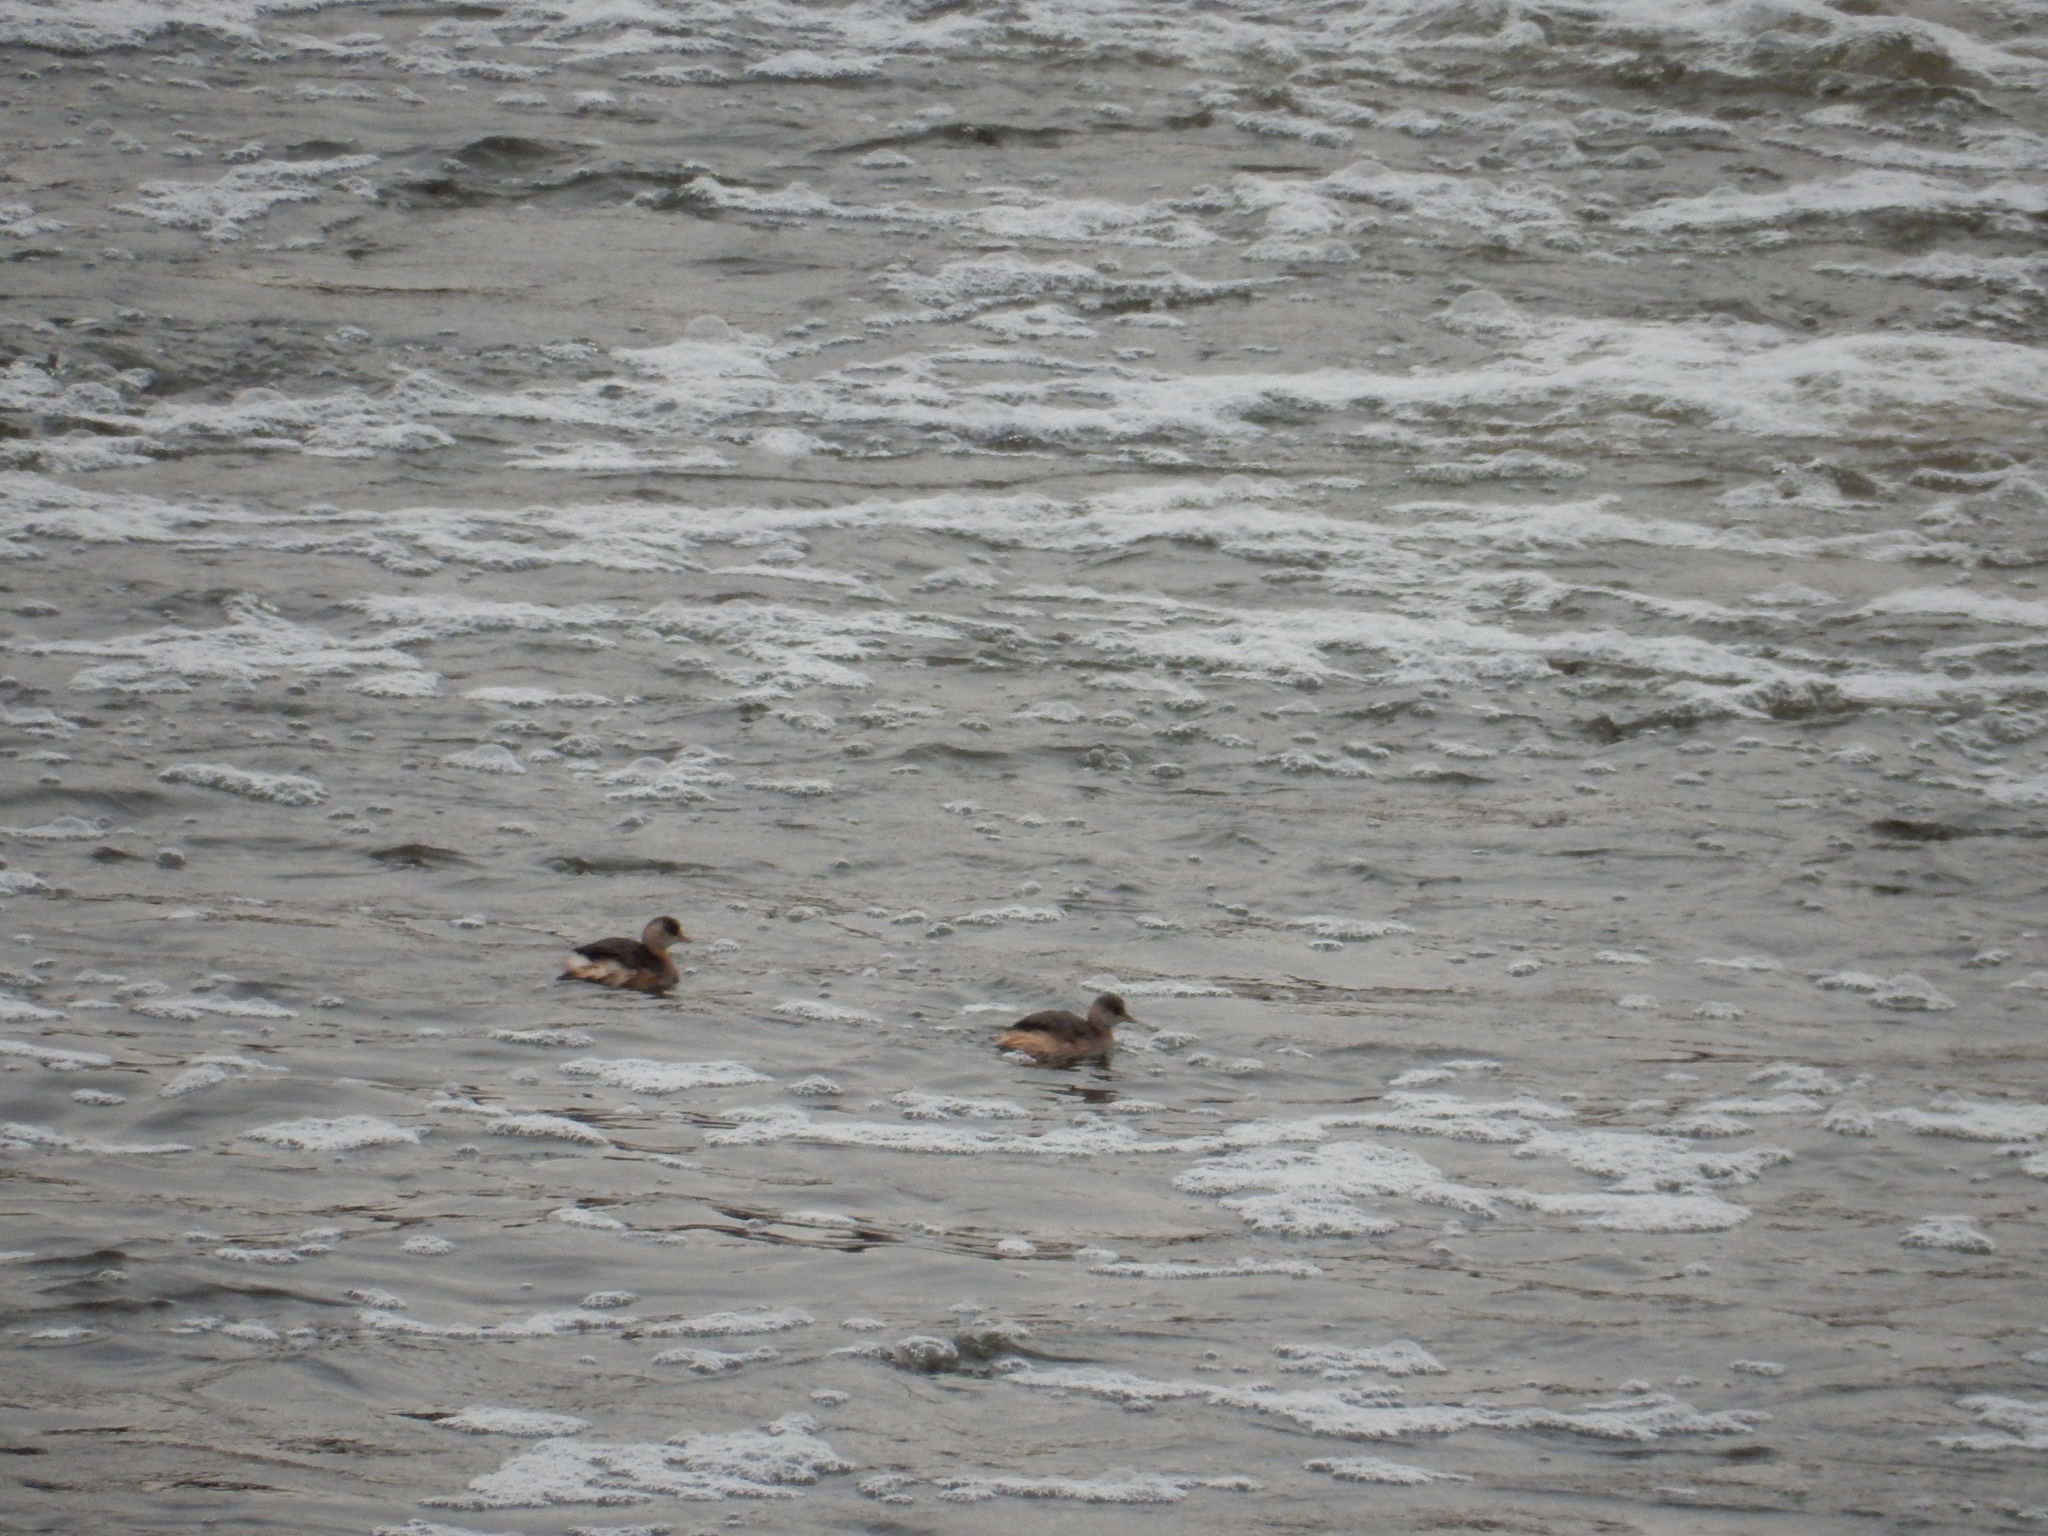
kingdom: Animalia
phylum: Chordata
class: Aves
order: Podicipediformes
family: Podicipedidae
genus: Tachybaptus
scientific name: Tachybaptus ruficollis
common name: Little grebe
